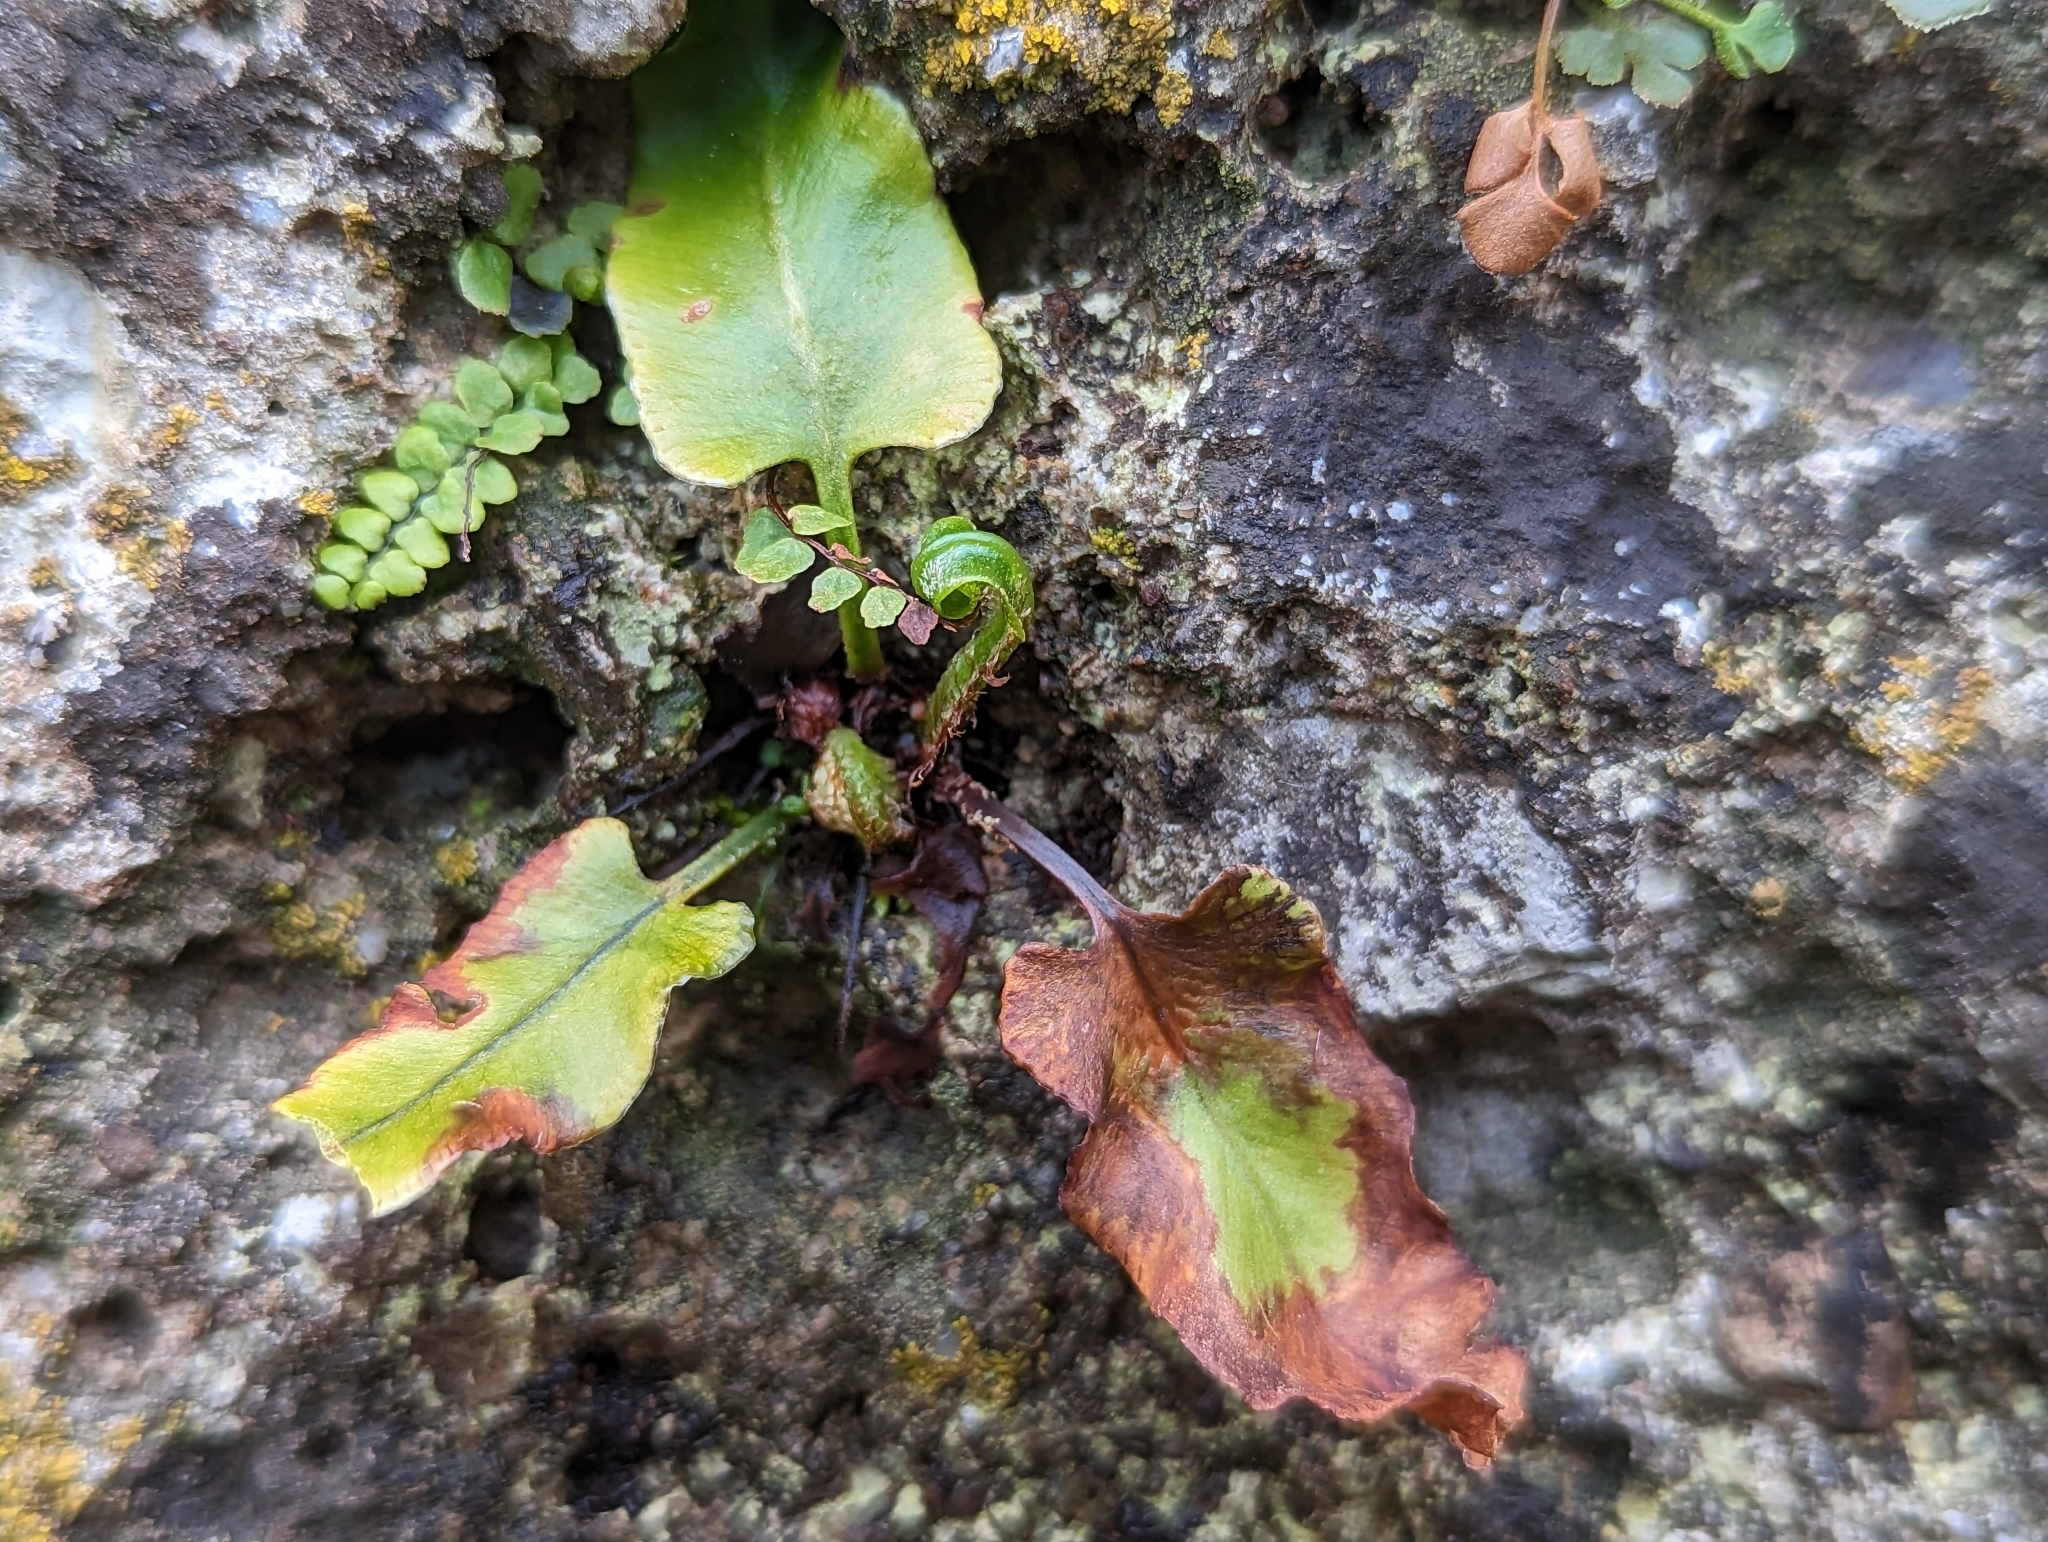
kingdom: Plantae
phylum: Tracheophyta
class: Polypodiopsida
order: Polypodiales
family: Aspleniaceae
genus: Asplenium
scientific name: Asplenium scolopendrium
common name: Hart's-tongue fern
